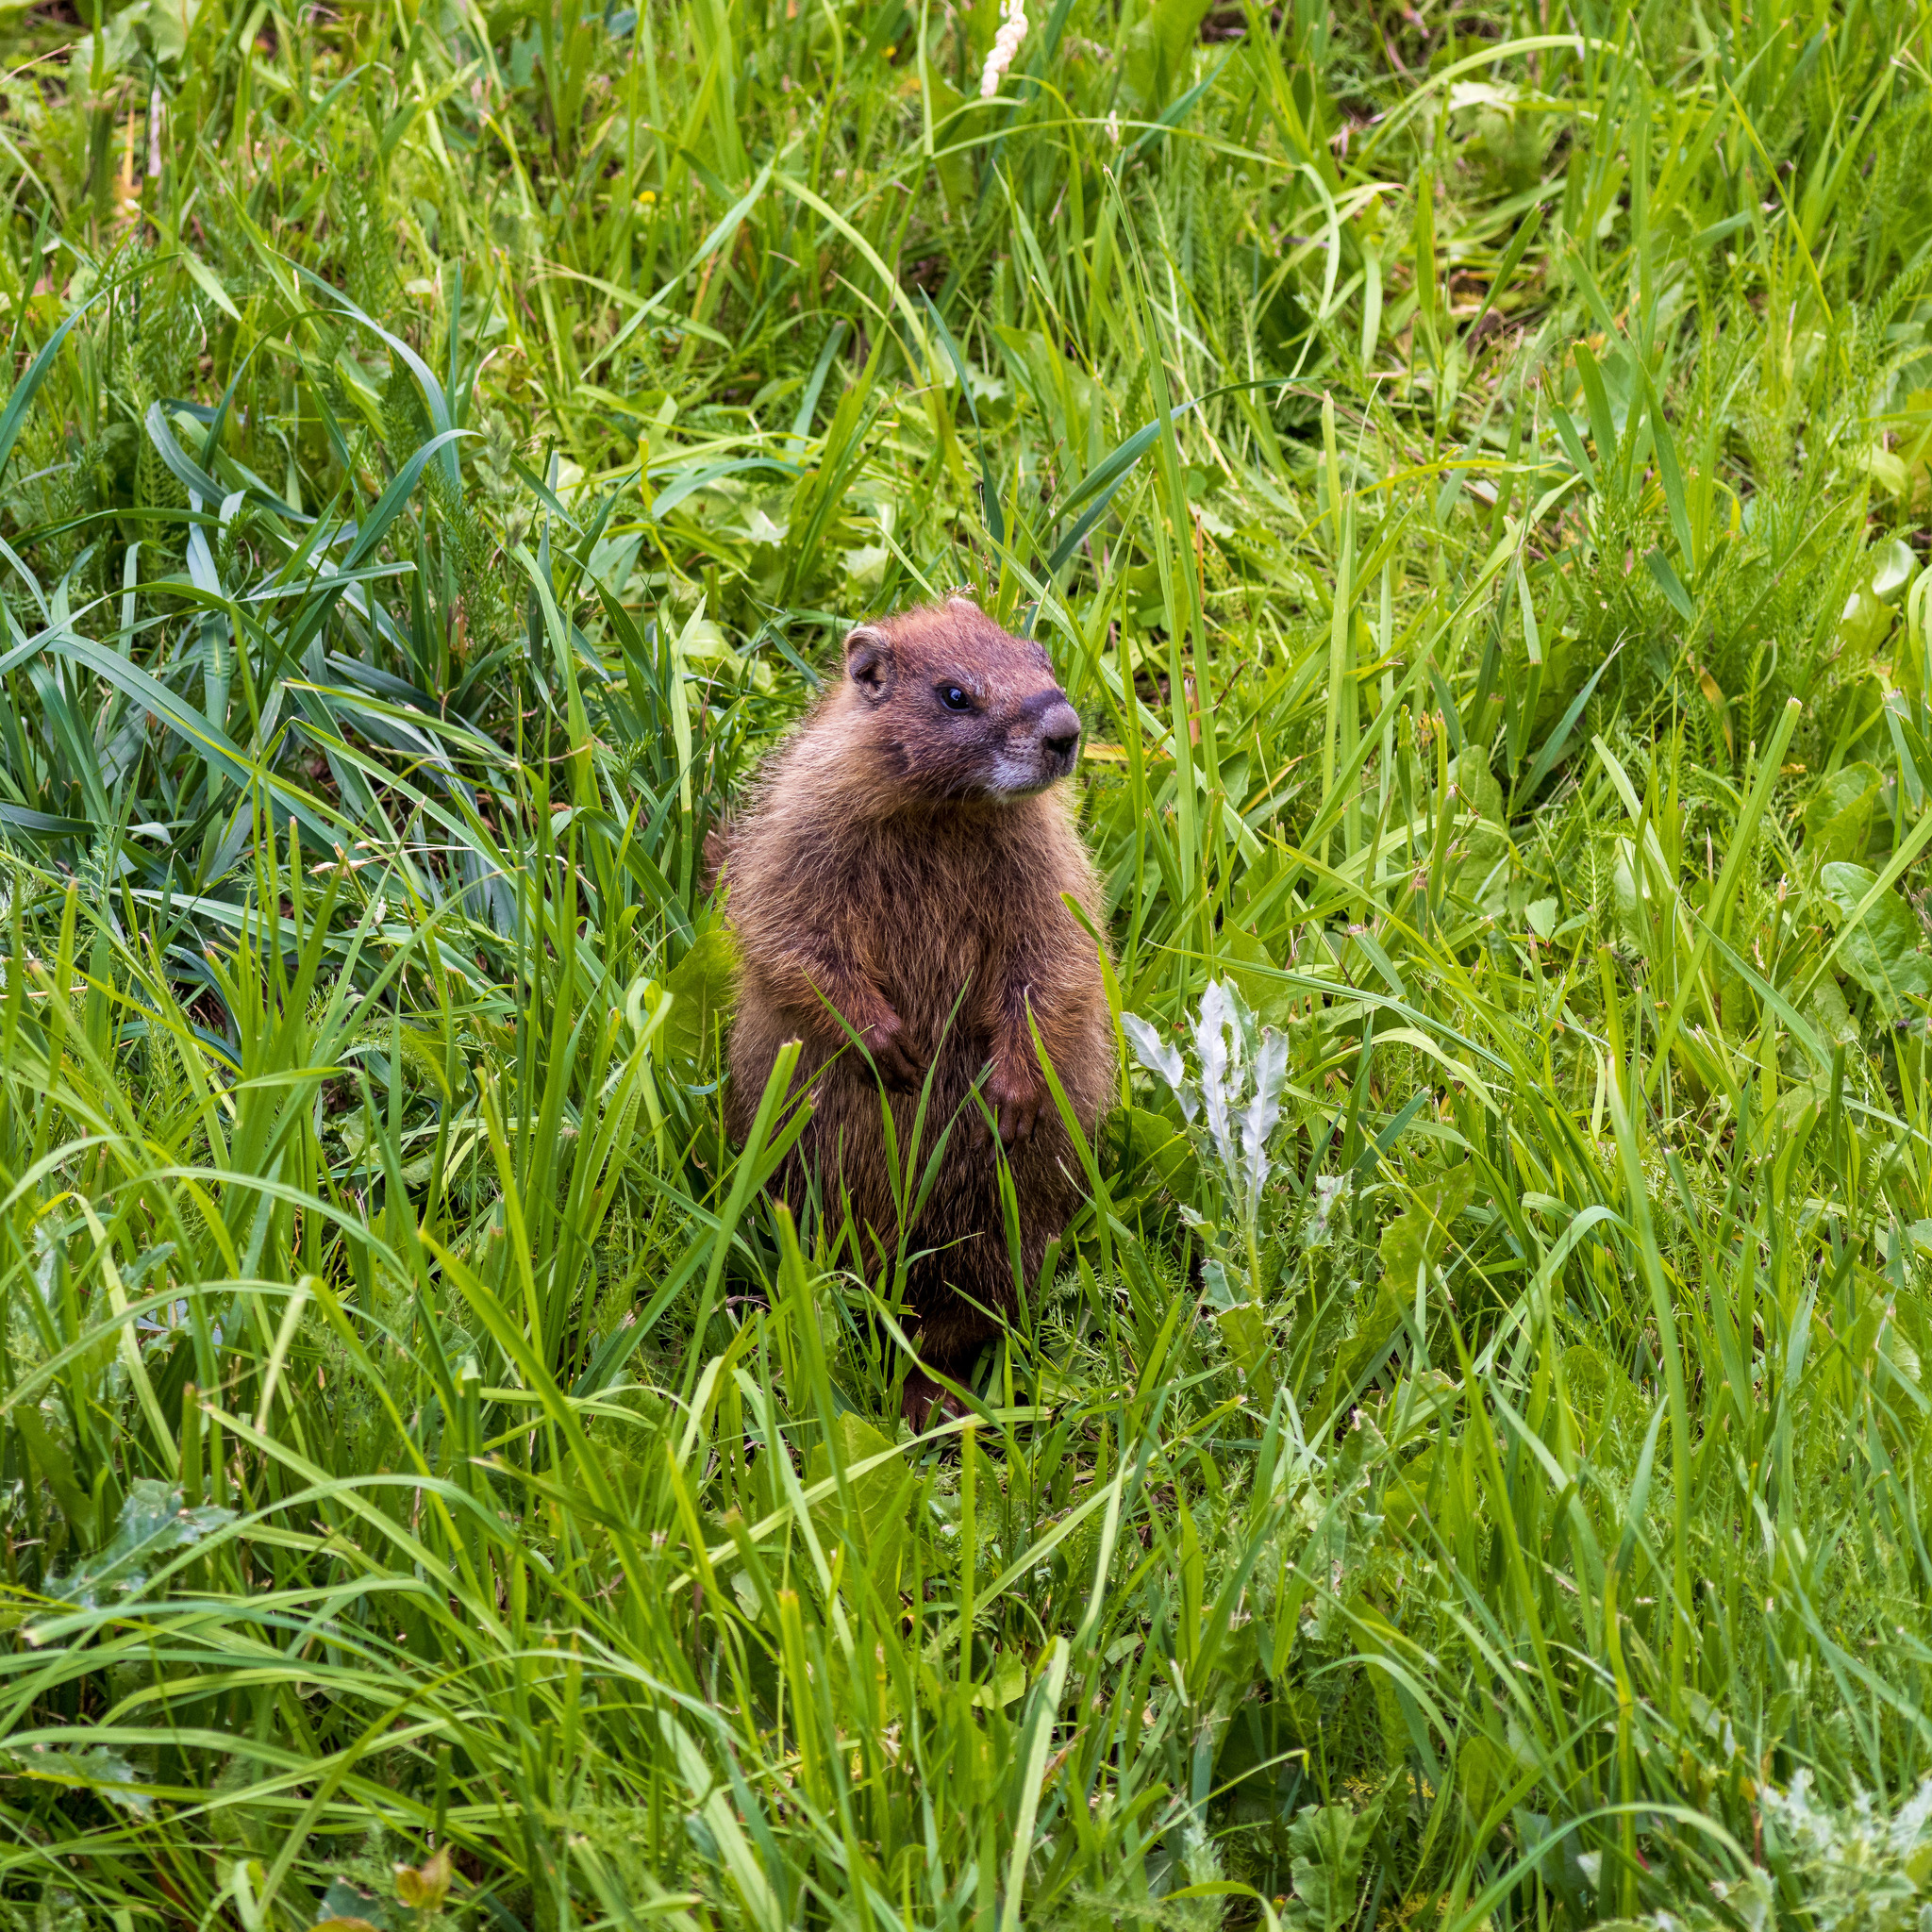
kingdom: Animalia
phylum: Chordata
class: Mammalia
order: Rodentia
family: Sciuridae
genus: Marmota
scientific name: Marmota flaviventris
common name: Yellow-bellied marmot
